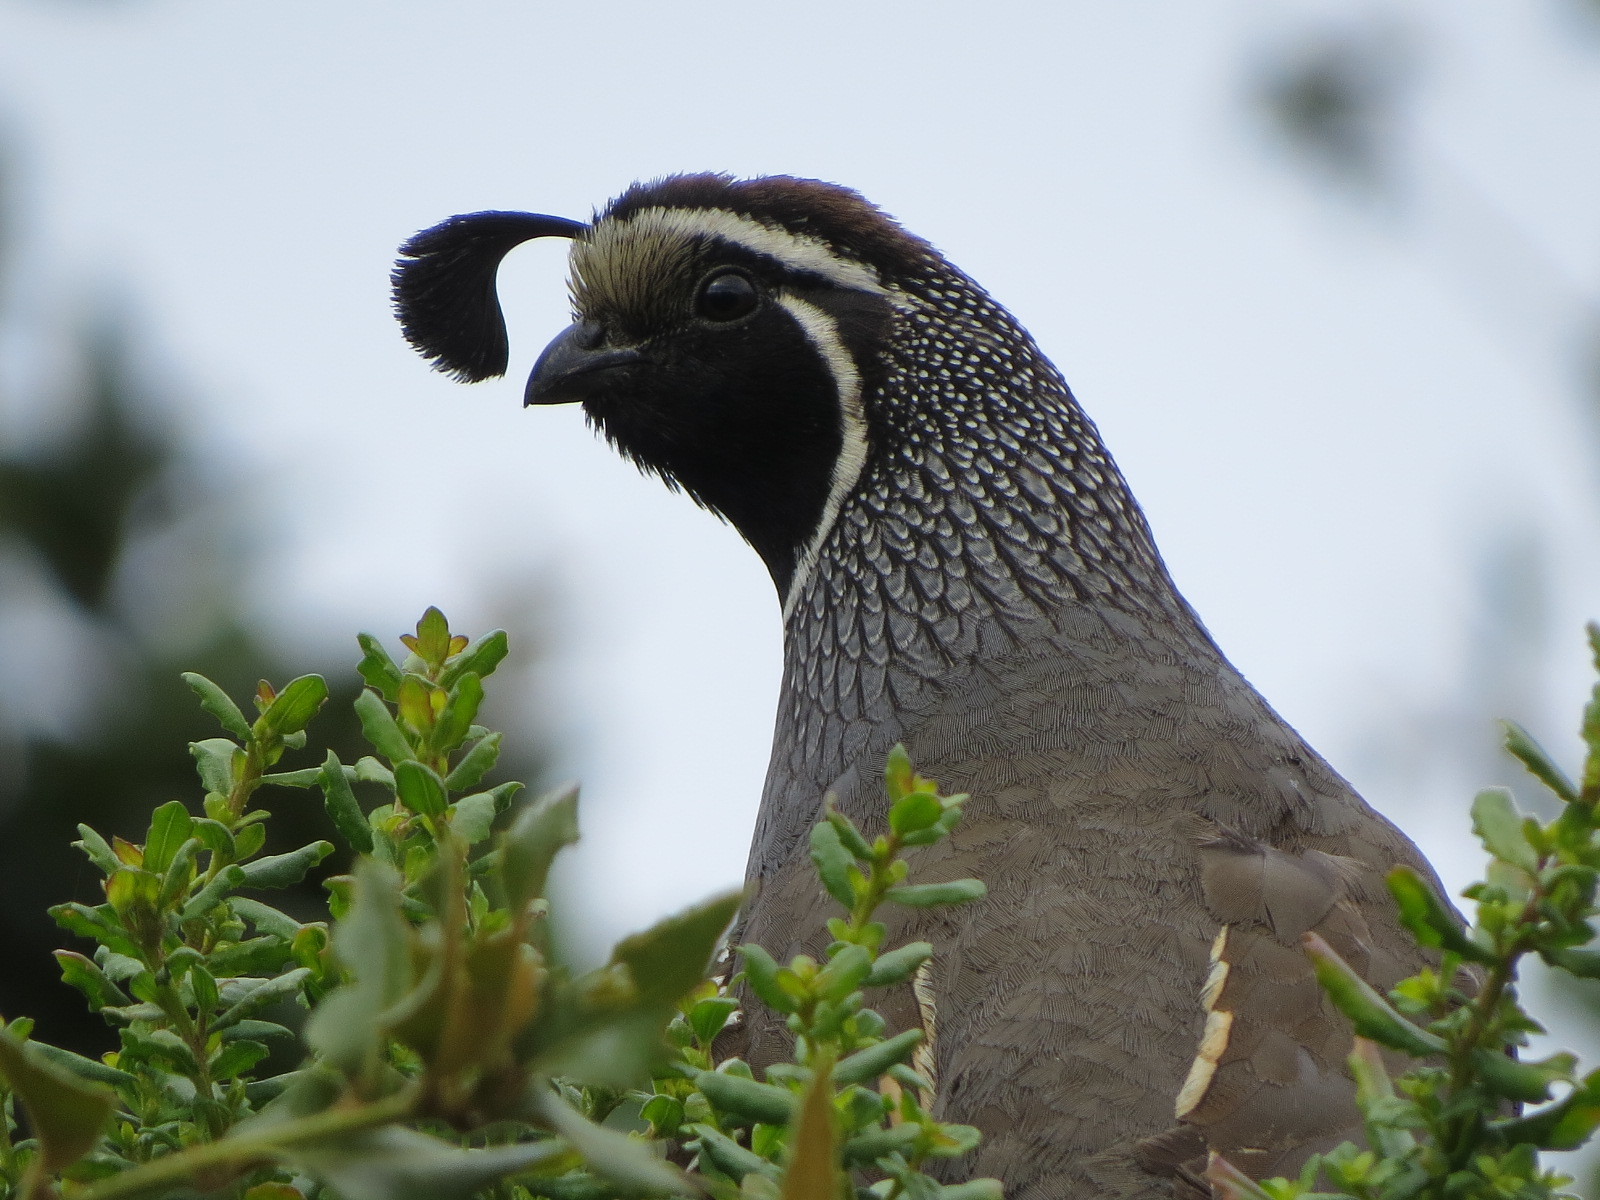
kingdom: Animalia
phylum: Chordata
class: Aves
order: Galliformes
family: Odontophoridae
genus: Callipepla
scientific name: Callipepla californica
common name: California quail
